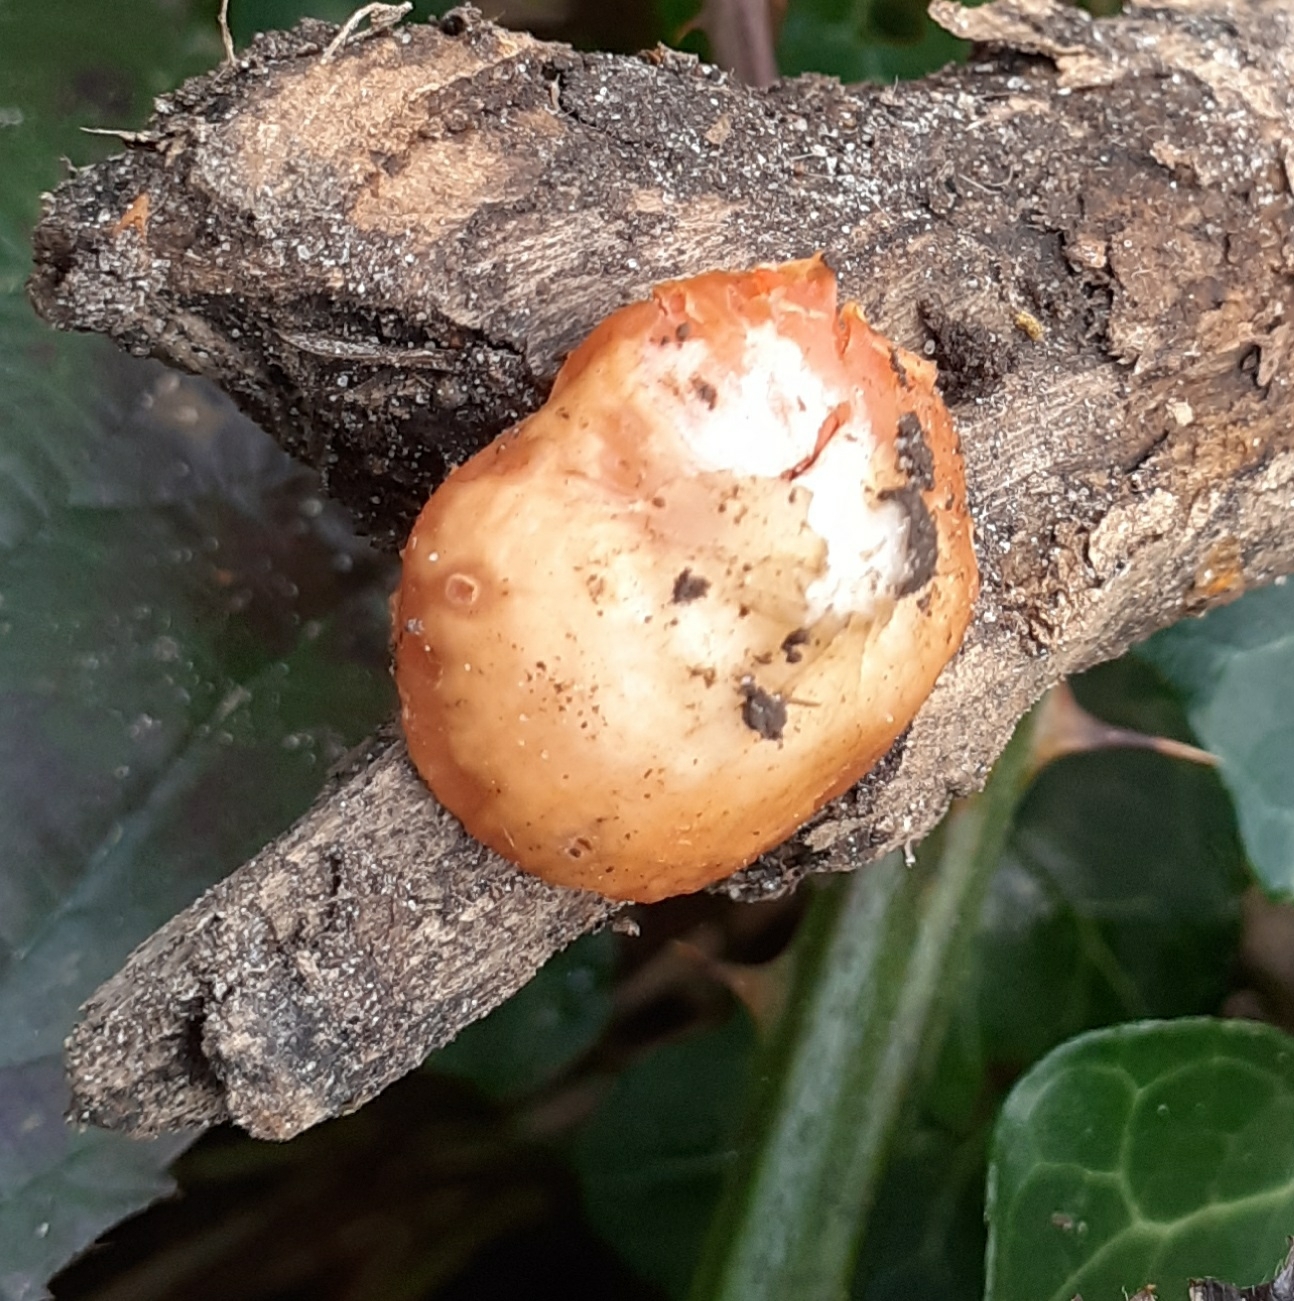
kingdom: Fungi
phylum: Ascomycota
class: Pezizomycetes
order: Pezizales
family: Sarcoscyphaceae
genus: Sarcoscypha
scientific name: Sarcoscypha
